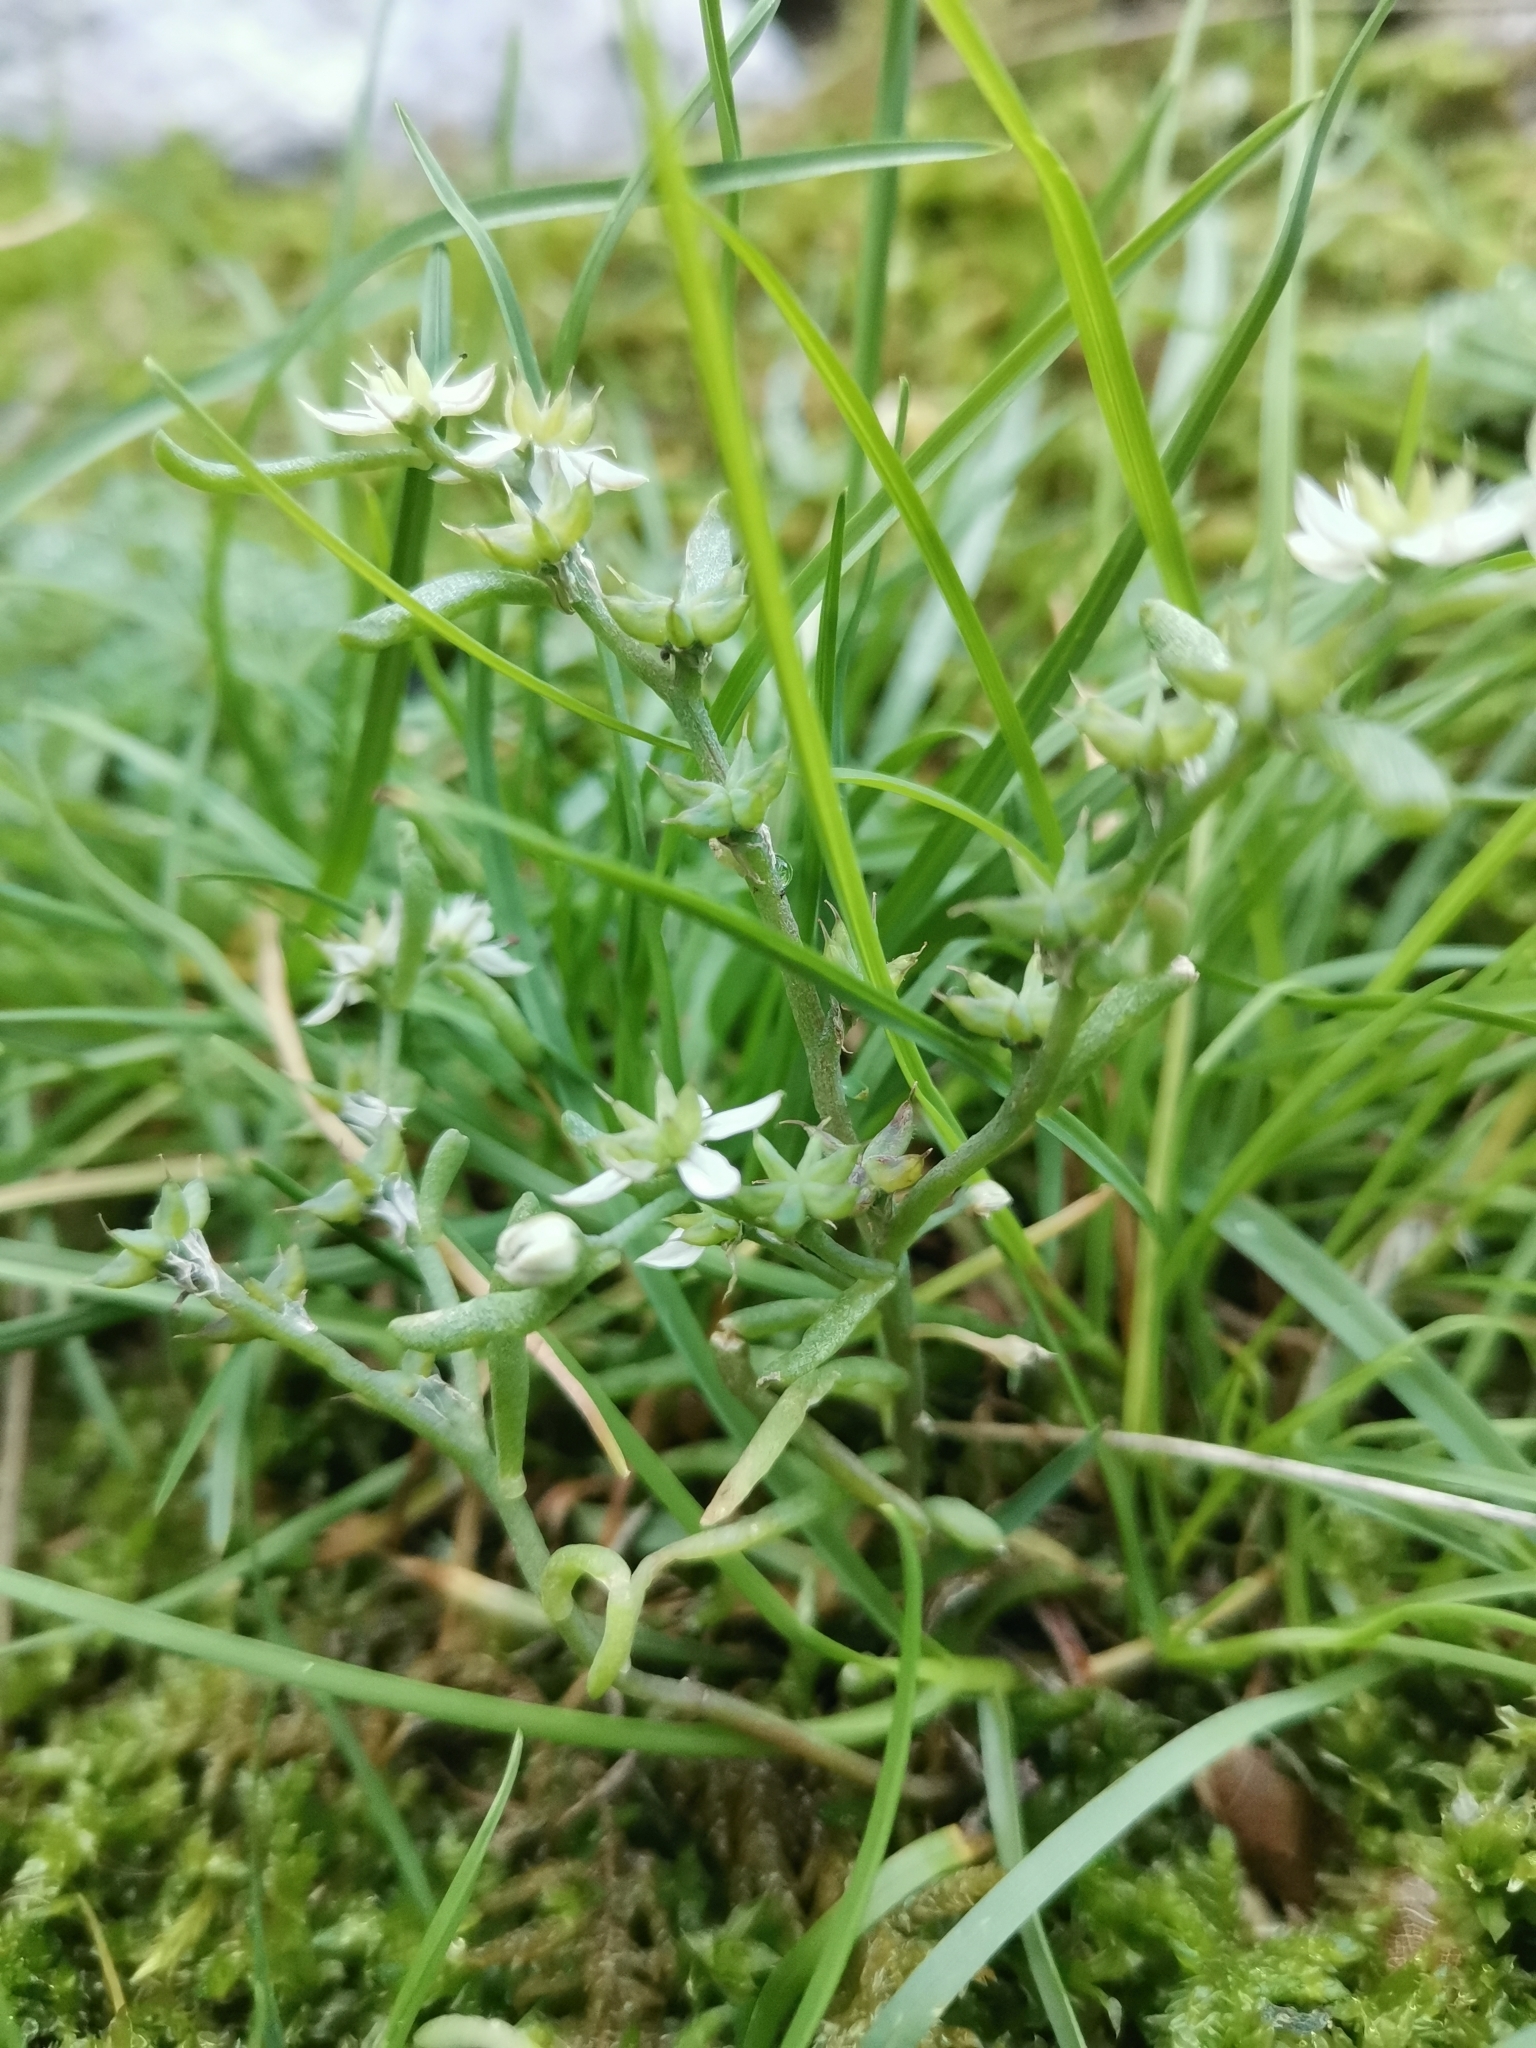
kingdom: Plantae
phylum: Tracheophyta
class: Magnoliopsida
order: Saxifragales
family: Crassulaceae
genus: Sedum
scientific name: Sedum hispanicum
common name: Spanish stonecrop
